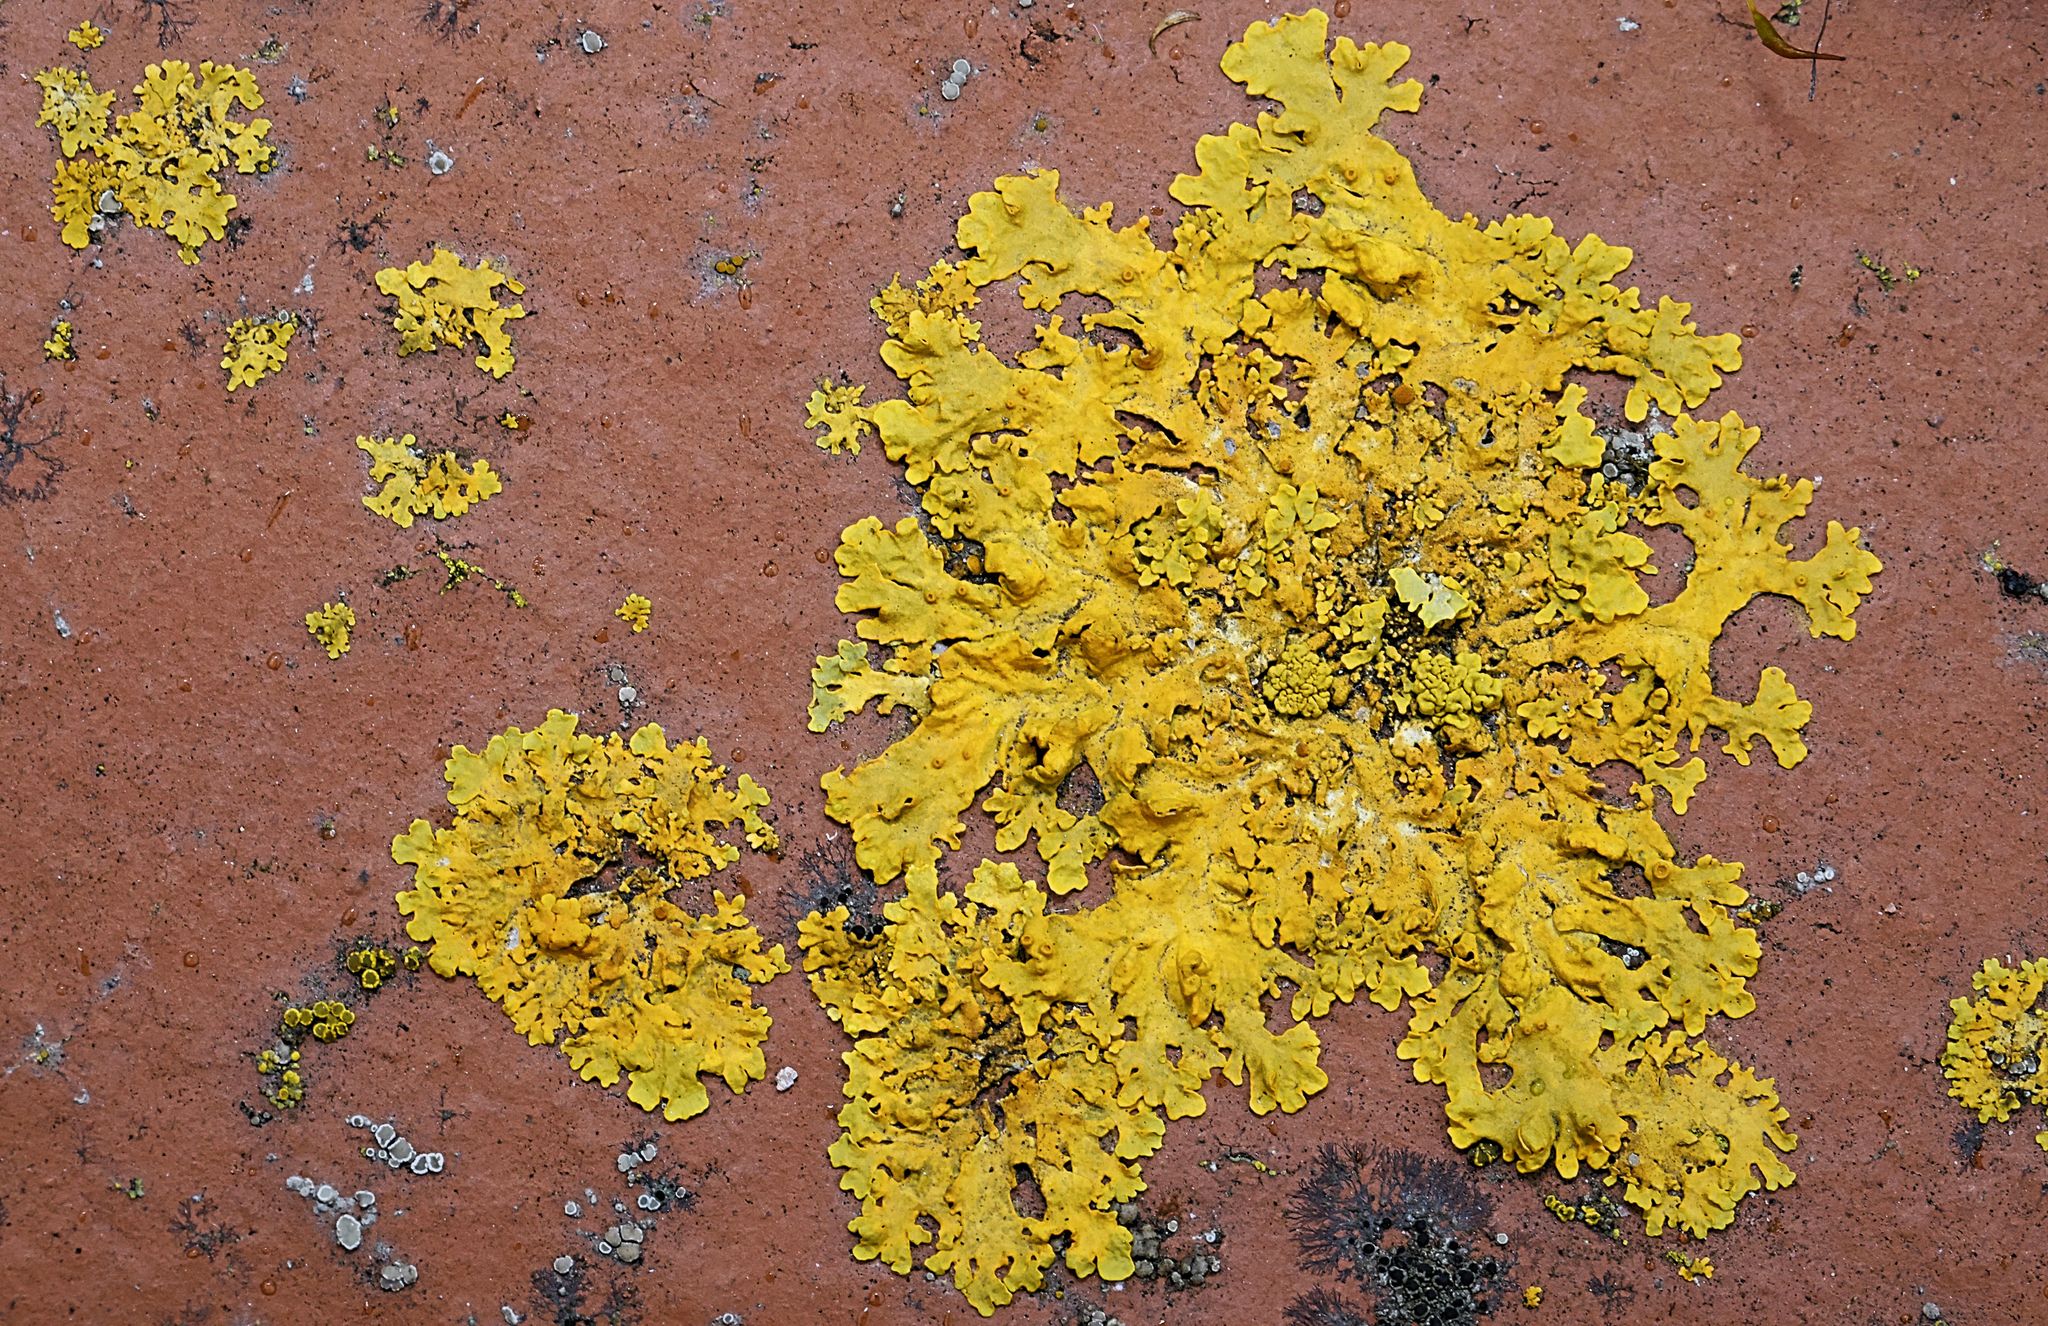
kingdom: Fungi
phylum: Ascomycota
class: Lecanoromycetes
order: Teloschistales
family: Teloschistaceae
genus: Xanthoria
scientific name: Xanthoria parietina
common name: Common orange lichen
